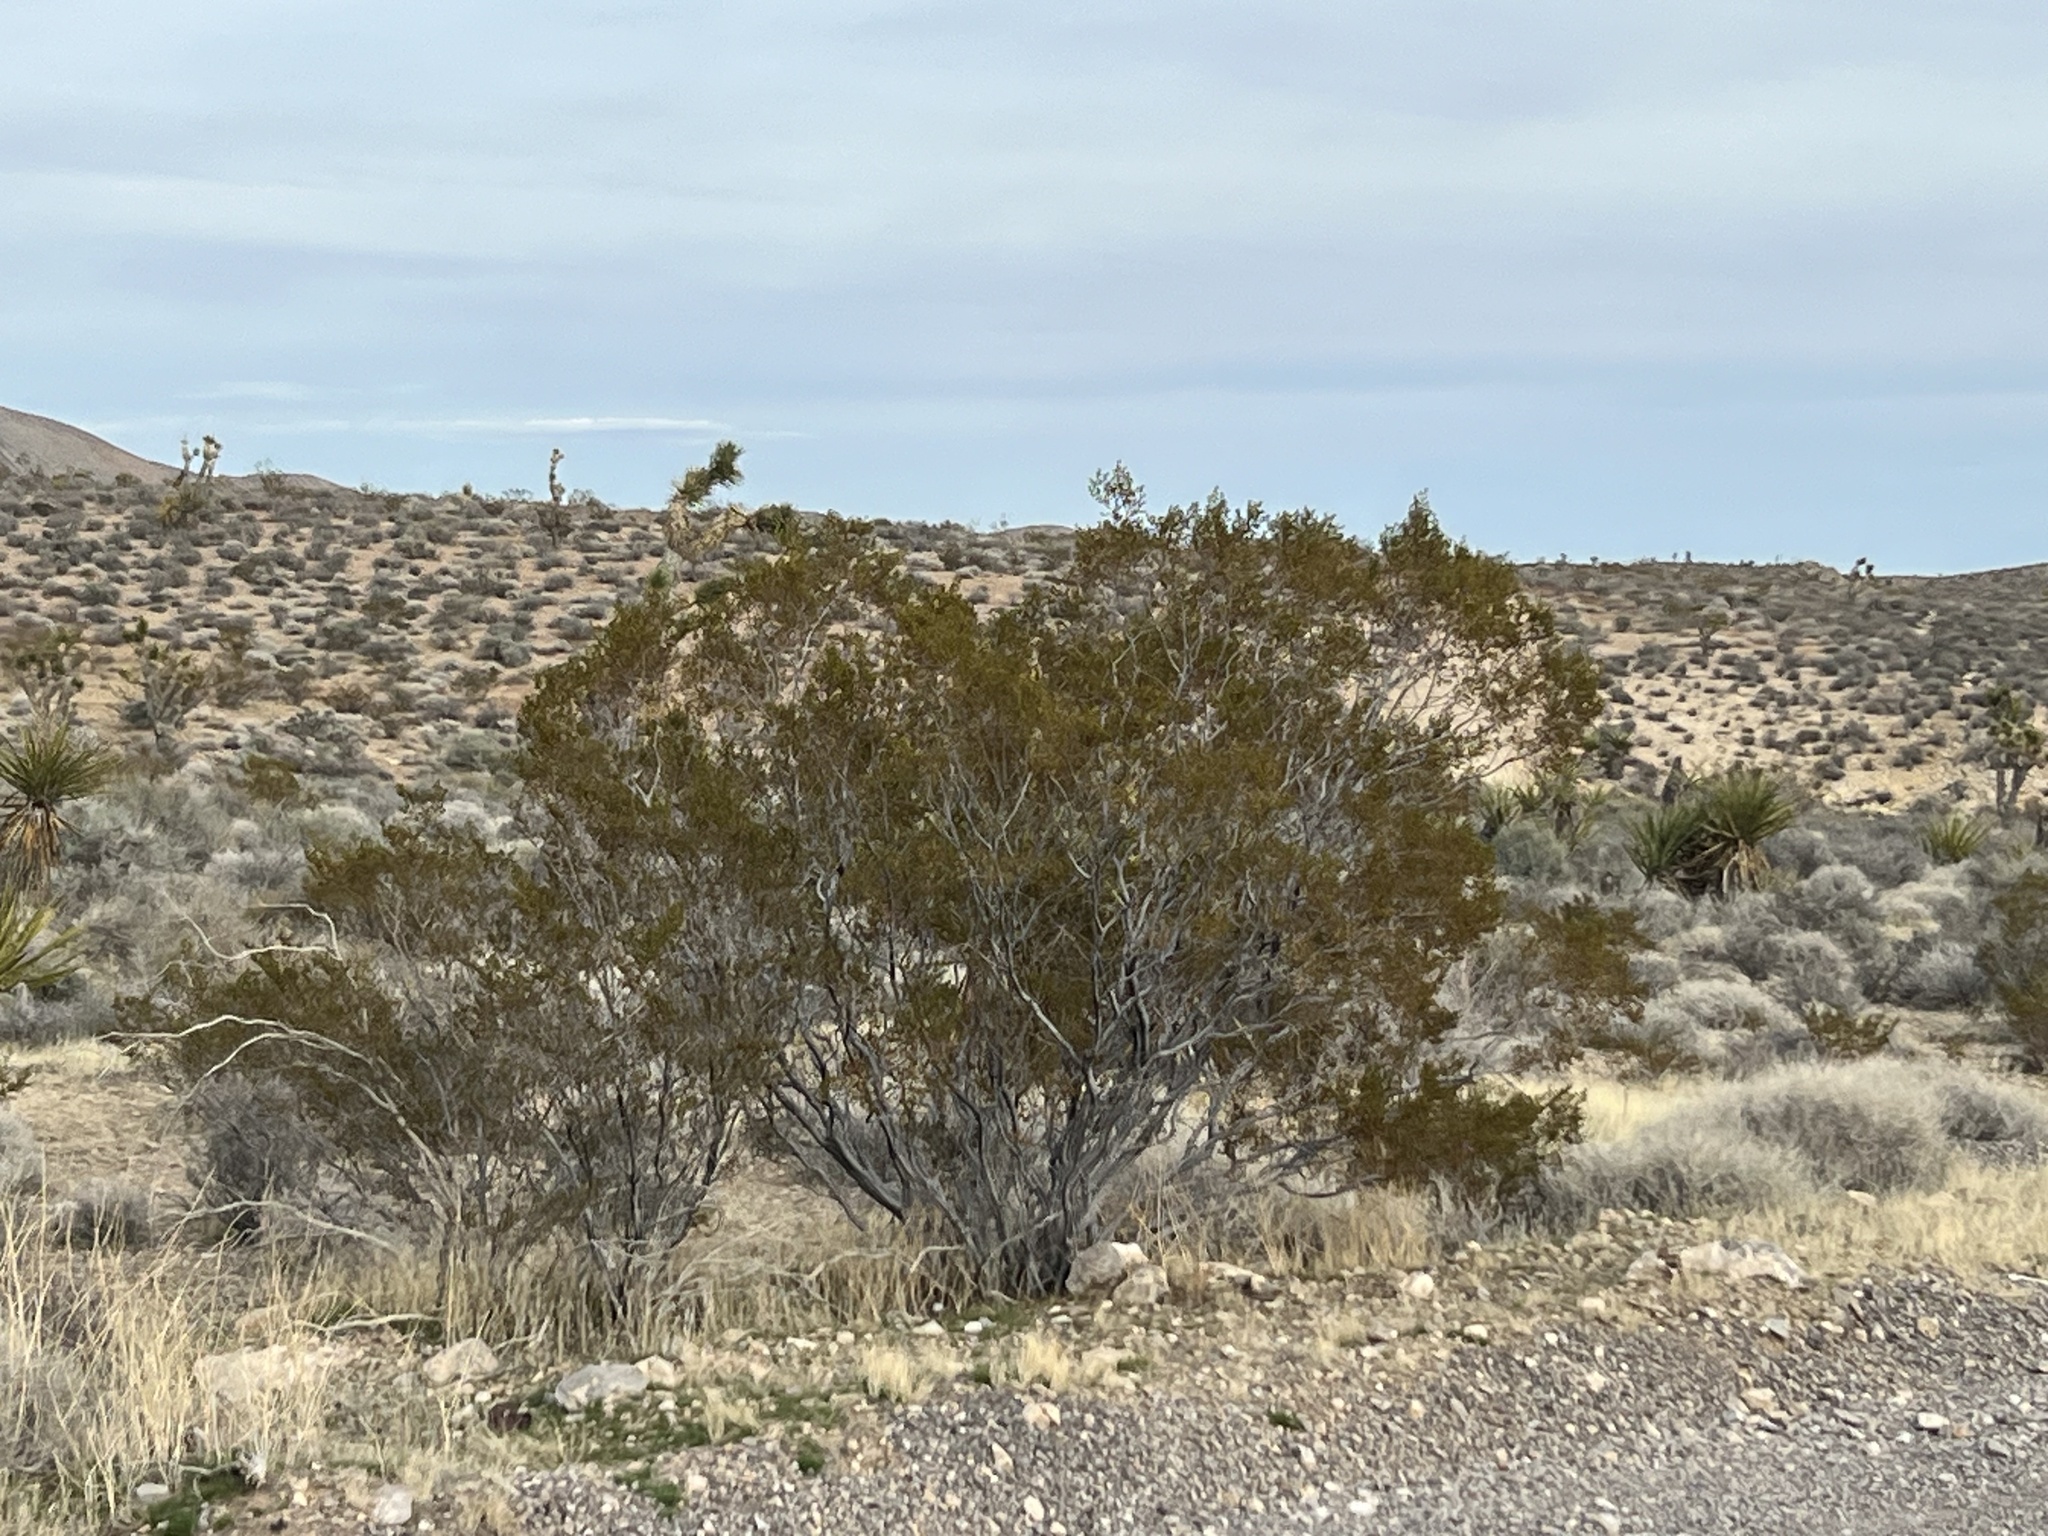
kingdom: Plantae
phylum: Tracheophyta
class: Magnoliopsida
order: Zygophyllales
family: Zygophyllaceae
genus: Larrea
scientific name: Larrea tridentata
